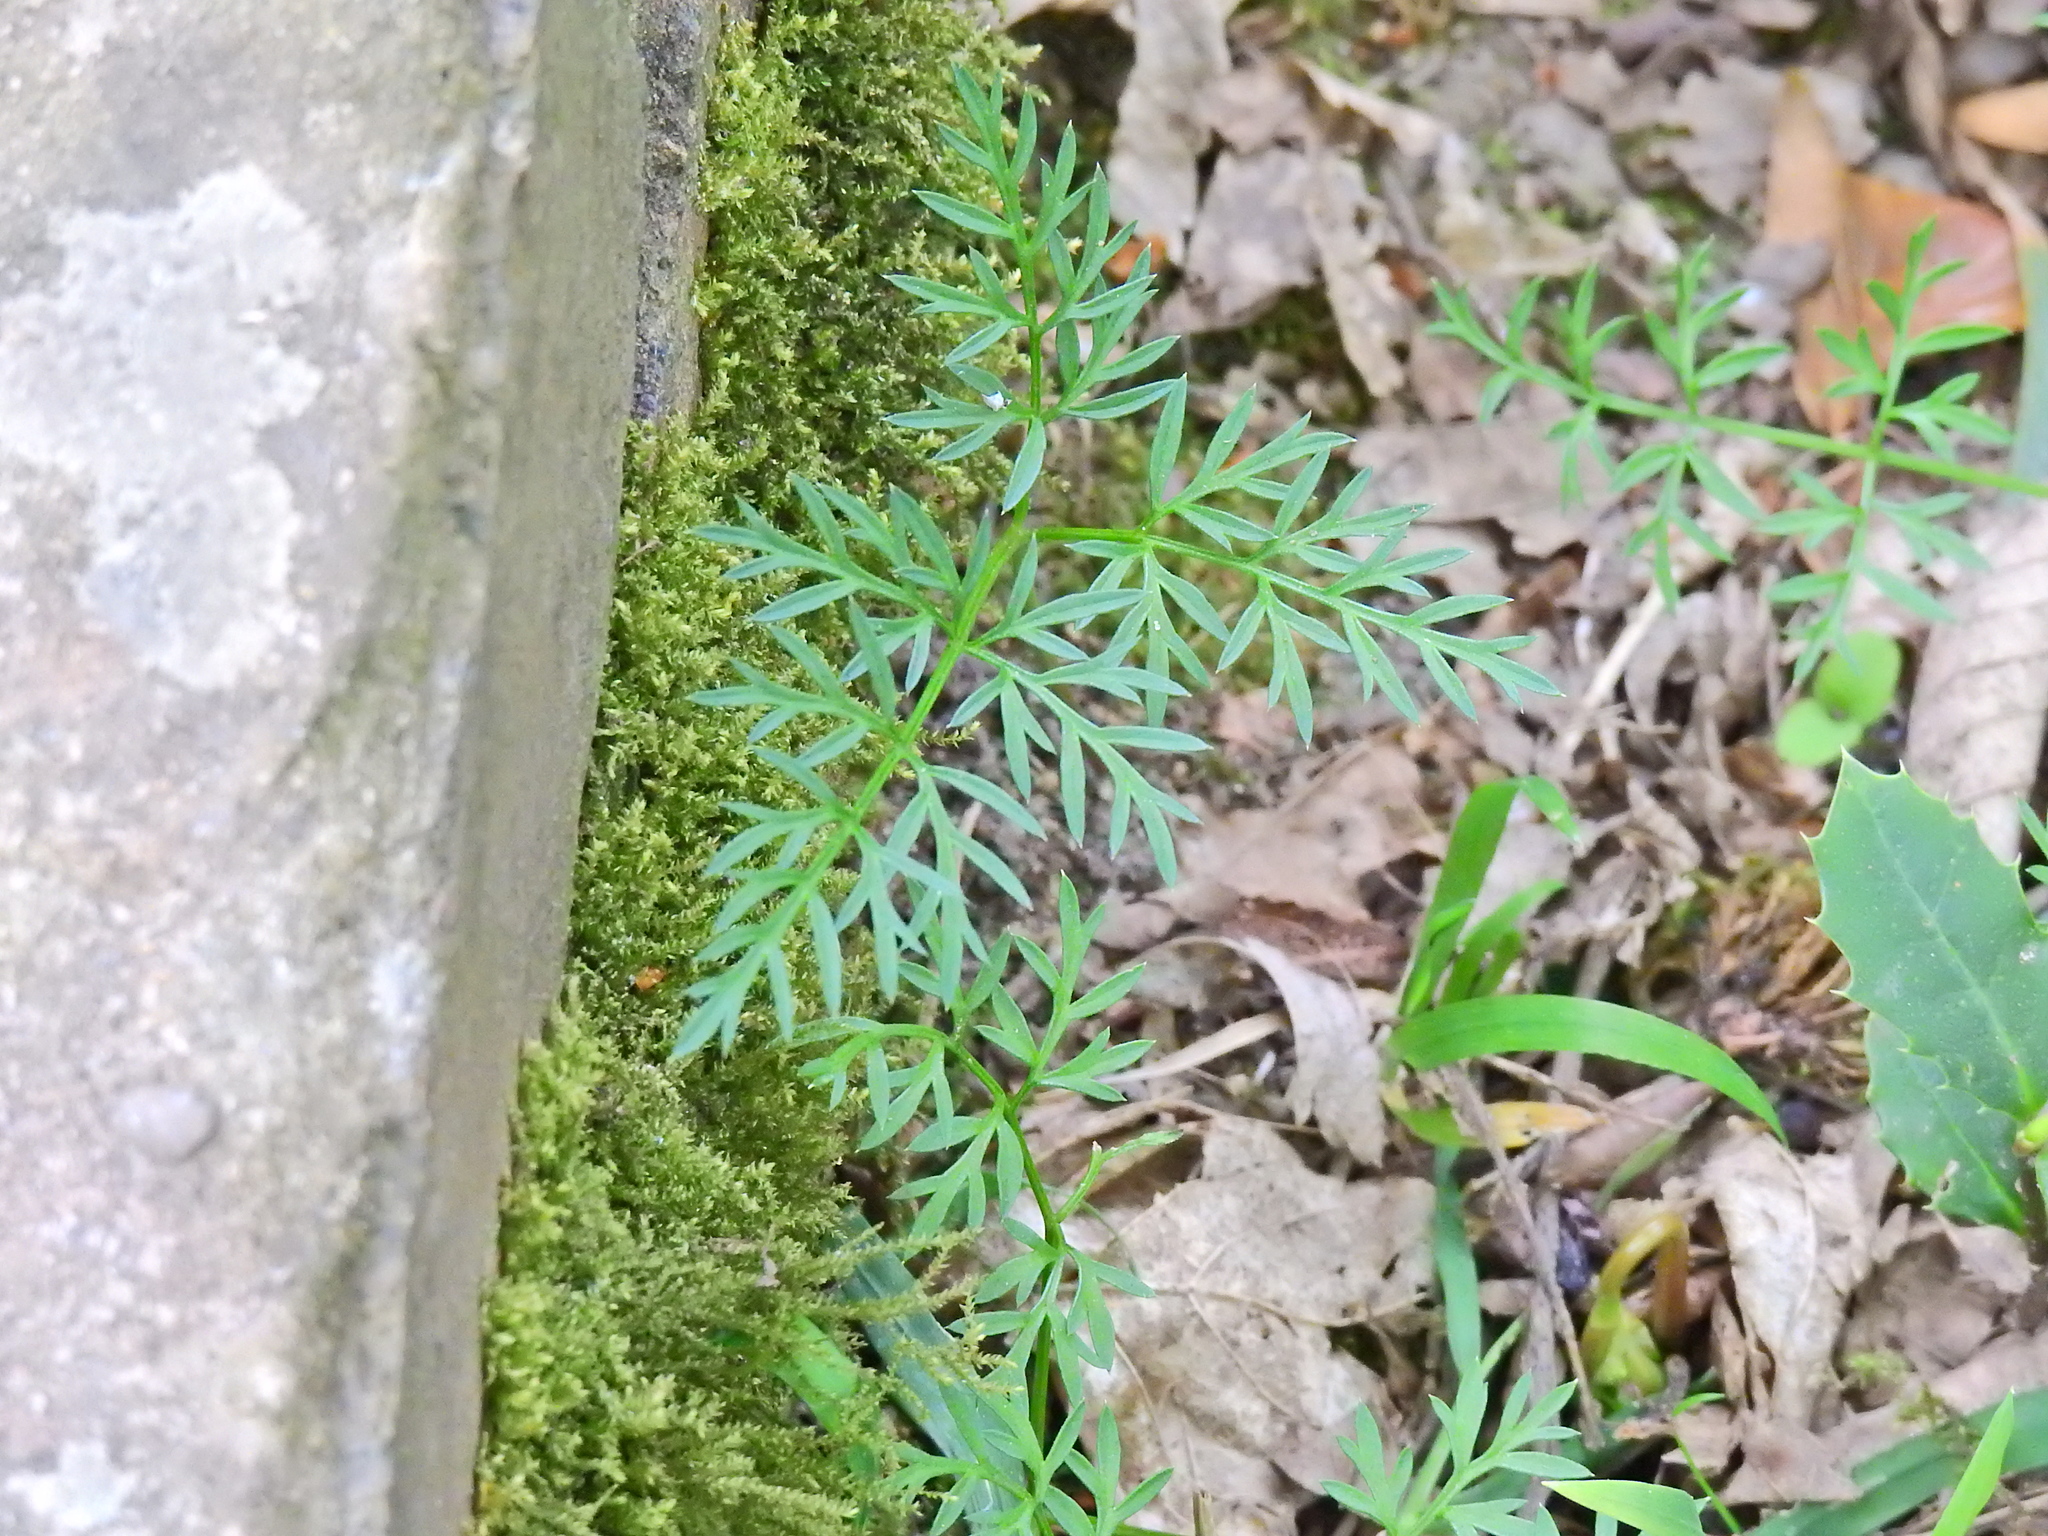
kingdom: Plantae
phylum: Tracheophyta
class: Magnoliopsida
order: Apiales
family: Apiaceae
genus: Conopodium
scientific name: Conopodium majus
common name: Pignut
